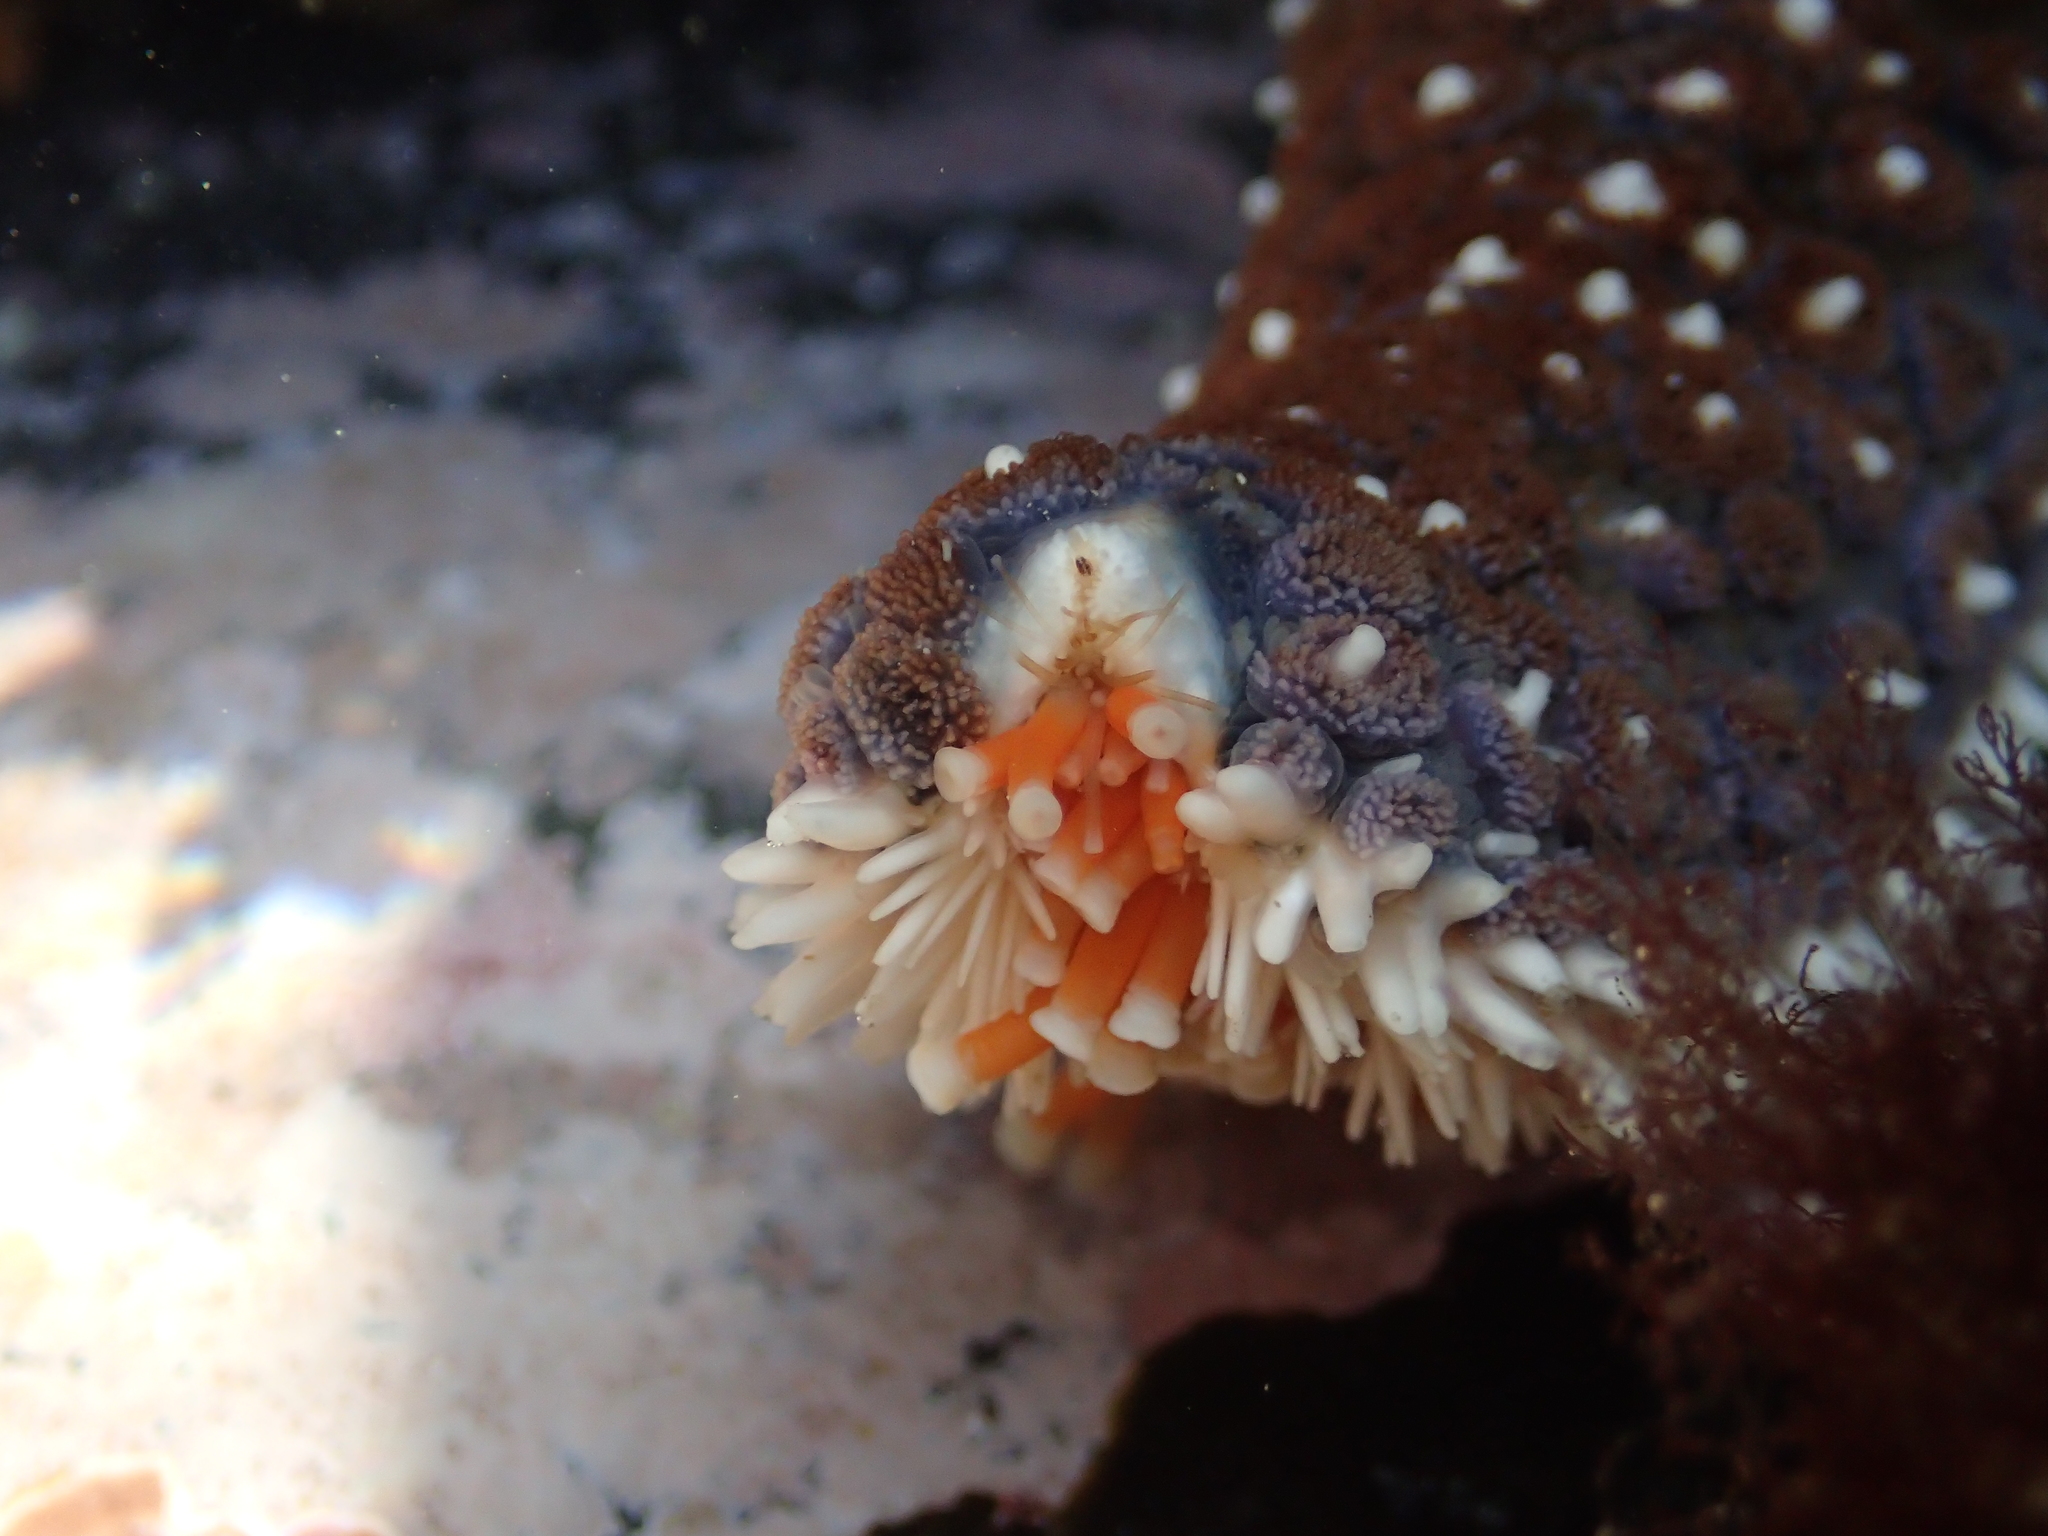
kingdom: Animalia
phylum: Echinodermata
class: Asteroidea
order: Forcipulatida
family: Asteriidae
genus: Astrostole
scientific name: Astrostole scabra
